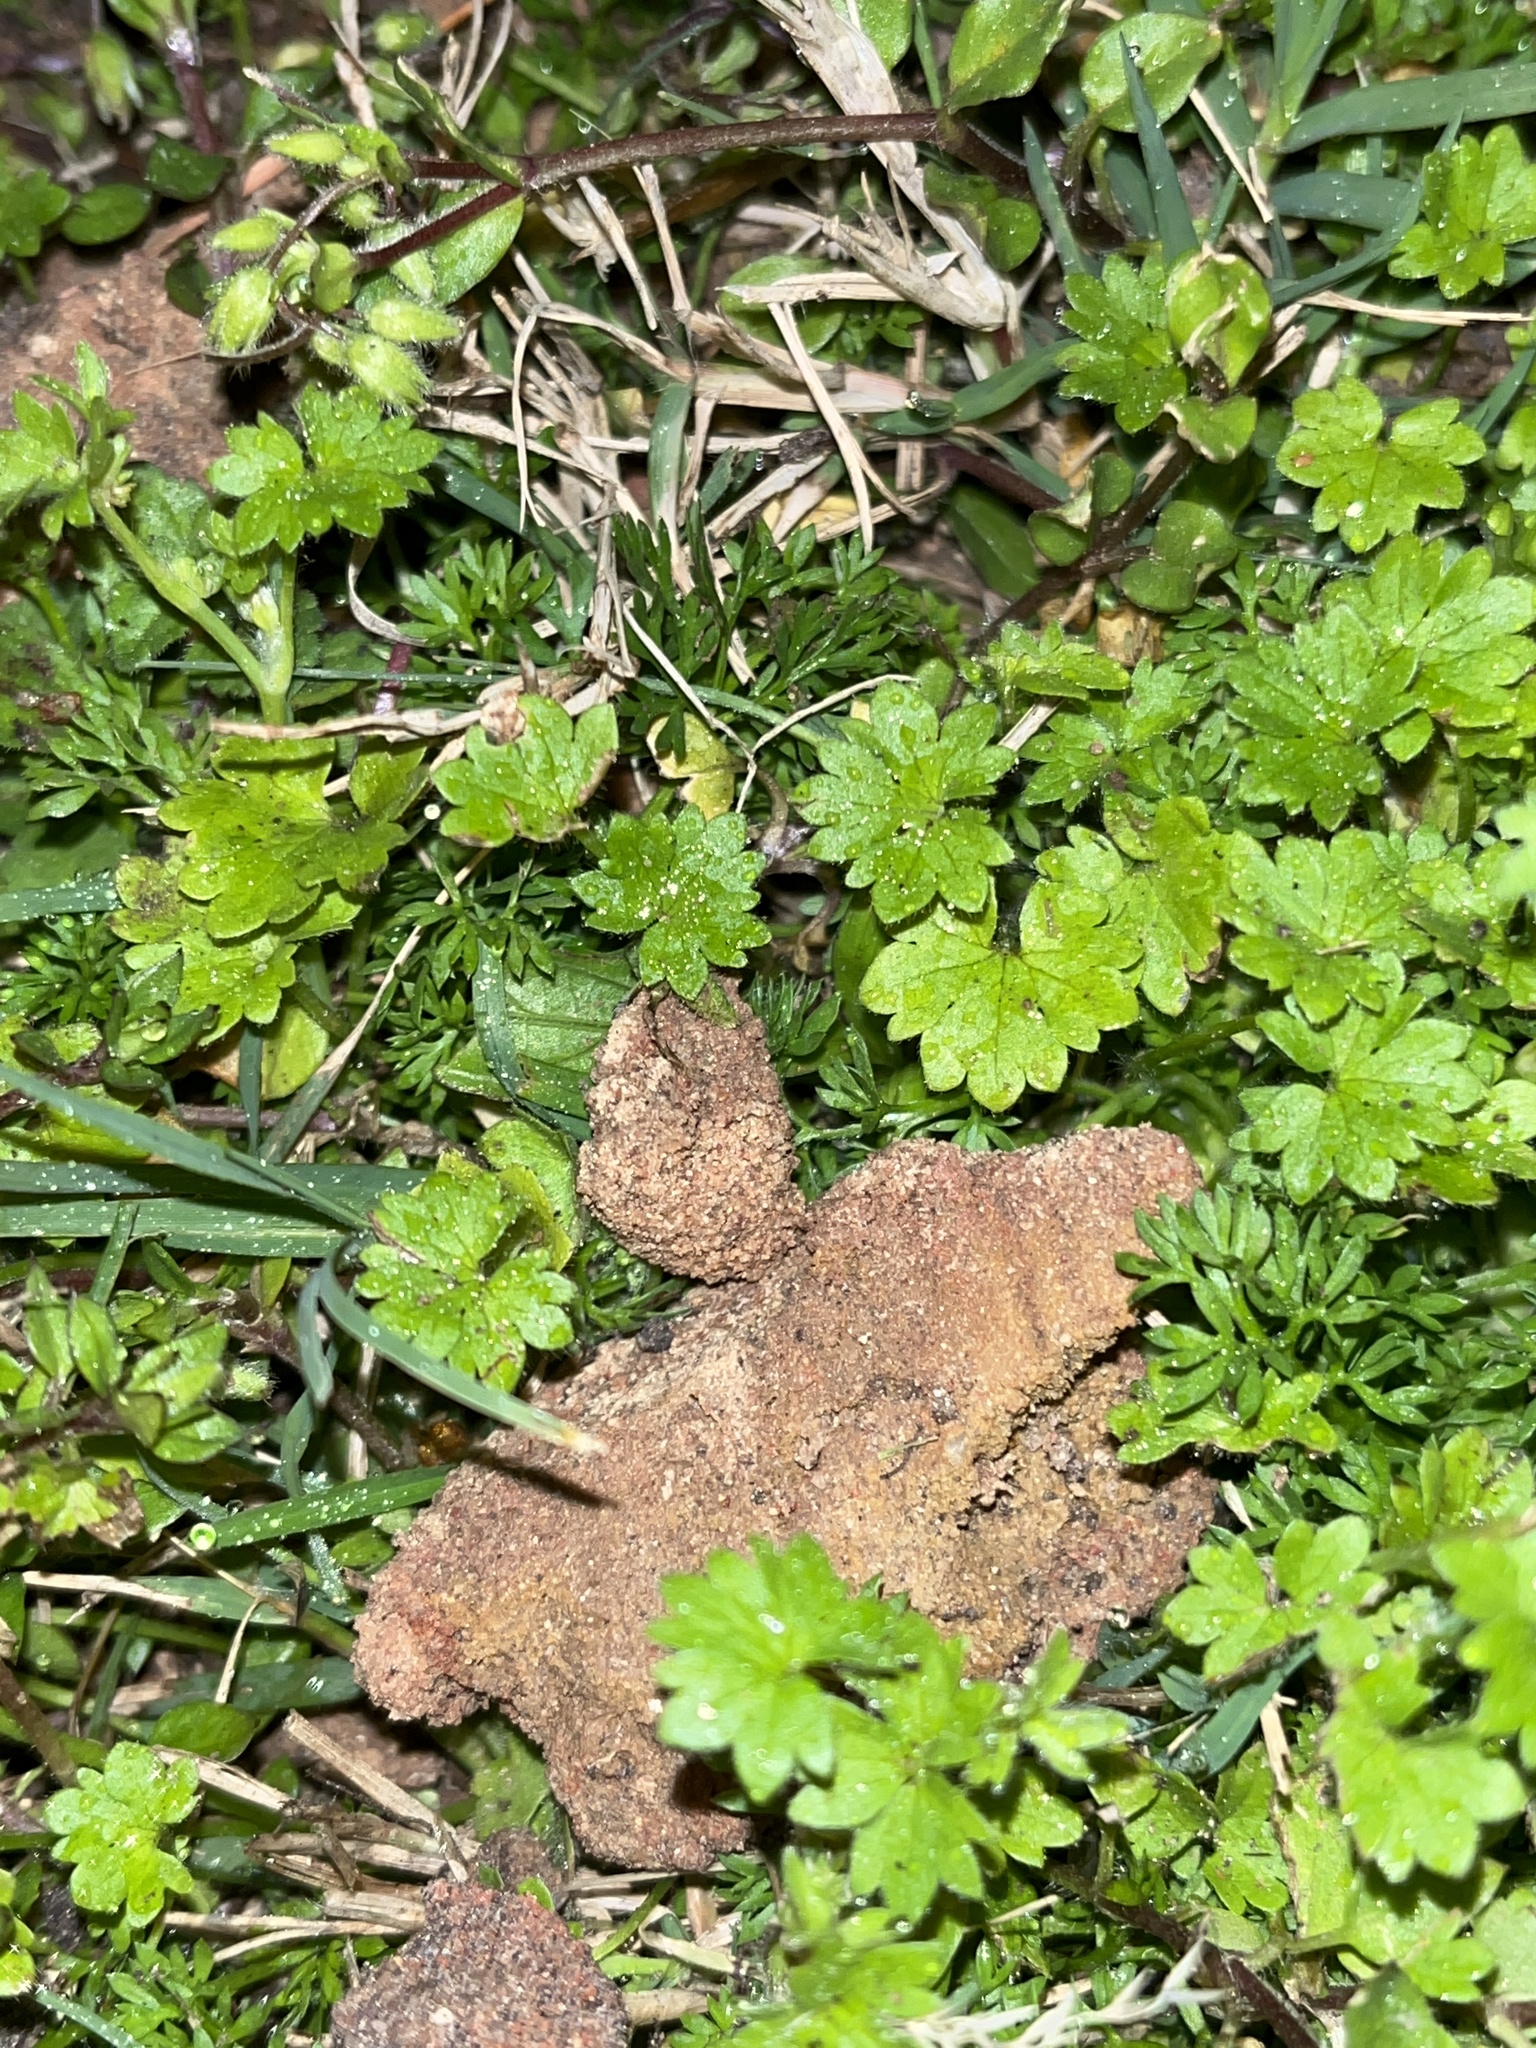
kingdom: Plantae
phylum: Tracheophyta
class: Magnoliopsida
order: Apiales
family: Apiaceae
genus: Bowlesia
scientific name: Bowlesia incana
